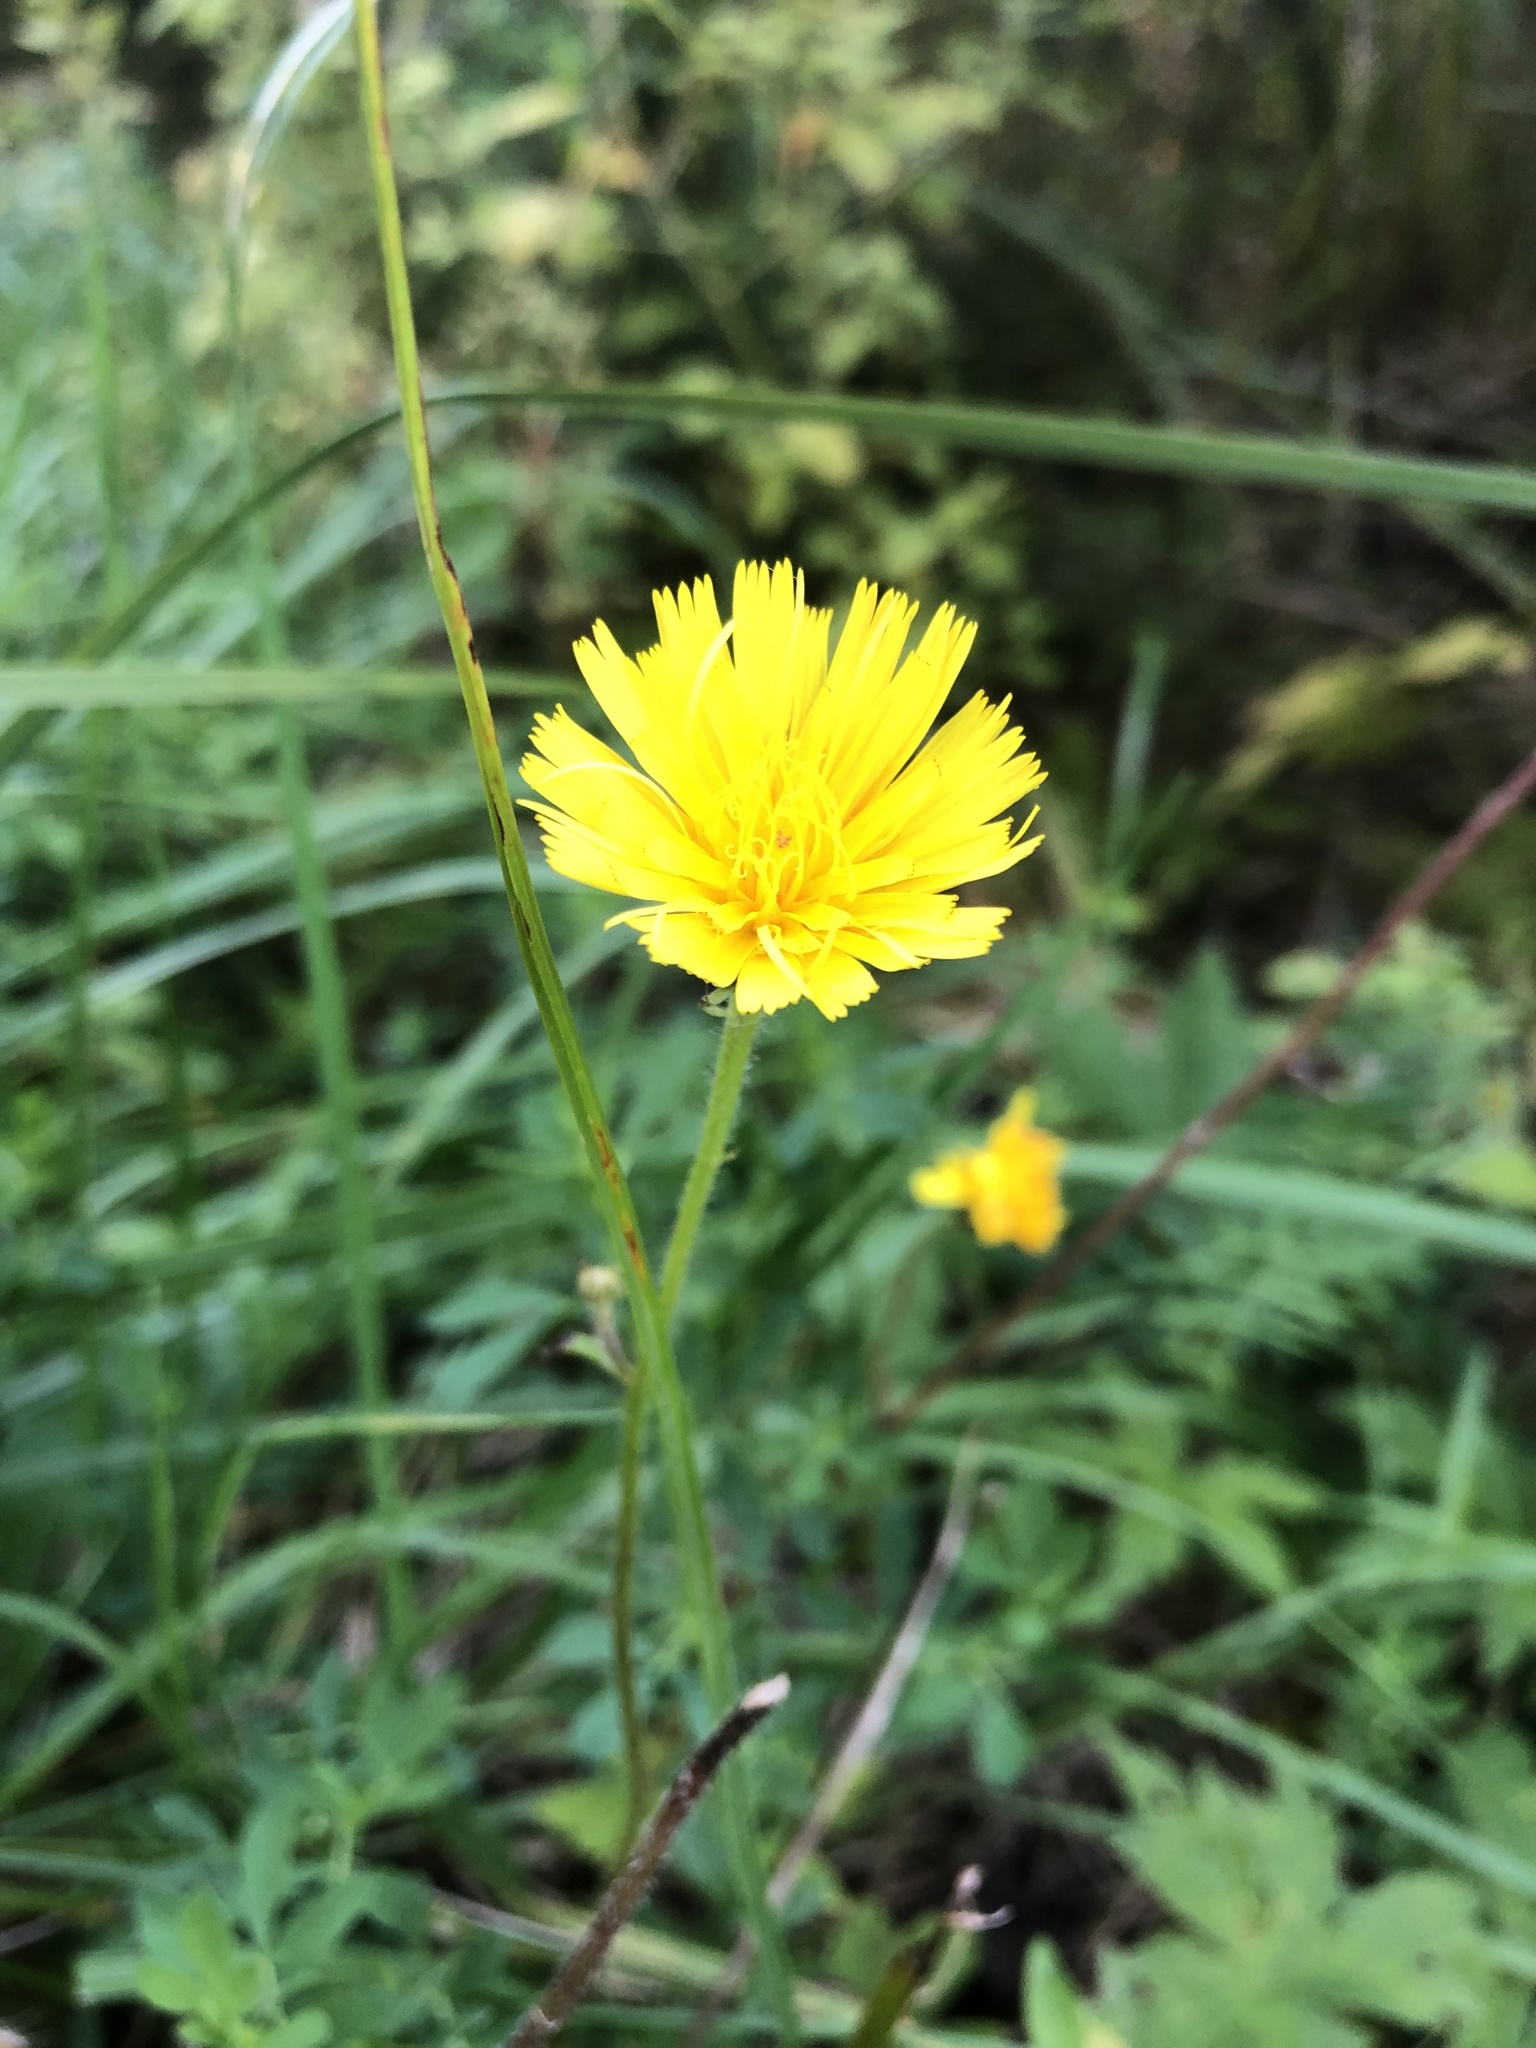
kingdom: Plantae
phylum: Tracheophyta
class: Magnoliopsida
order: Asterales
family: Asteraceae
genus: Scorzoneroides
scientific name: Scorzoneroides autumnalis
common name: Autumn hawkbit
